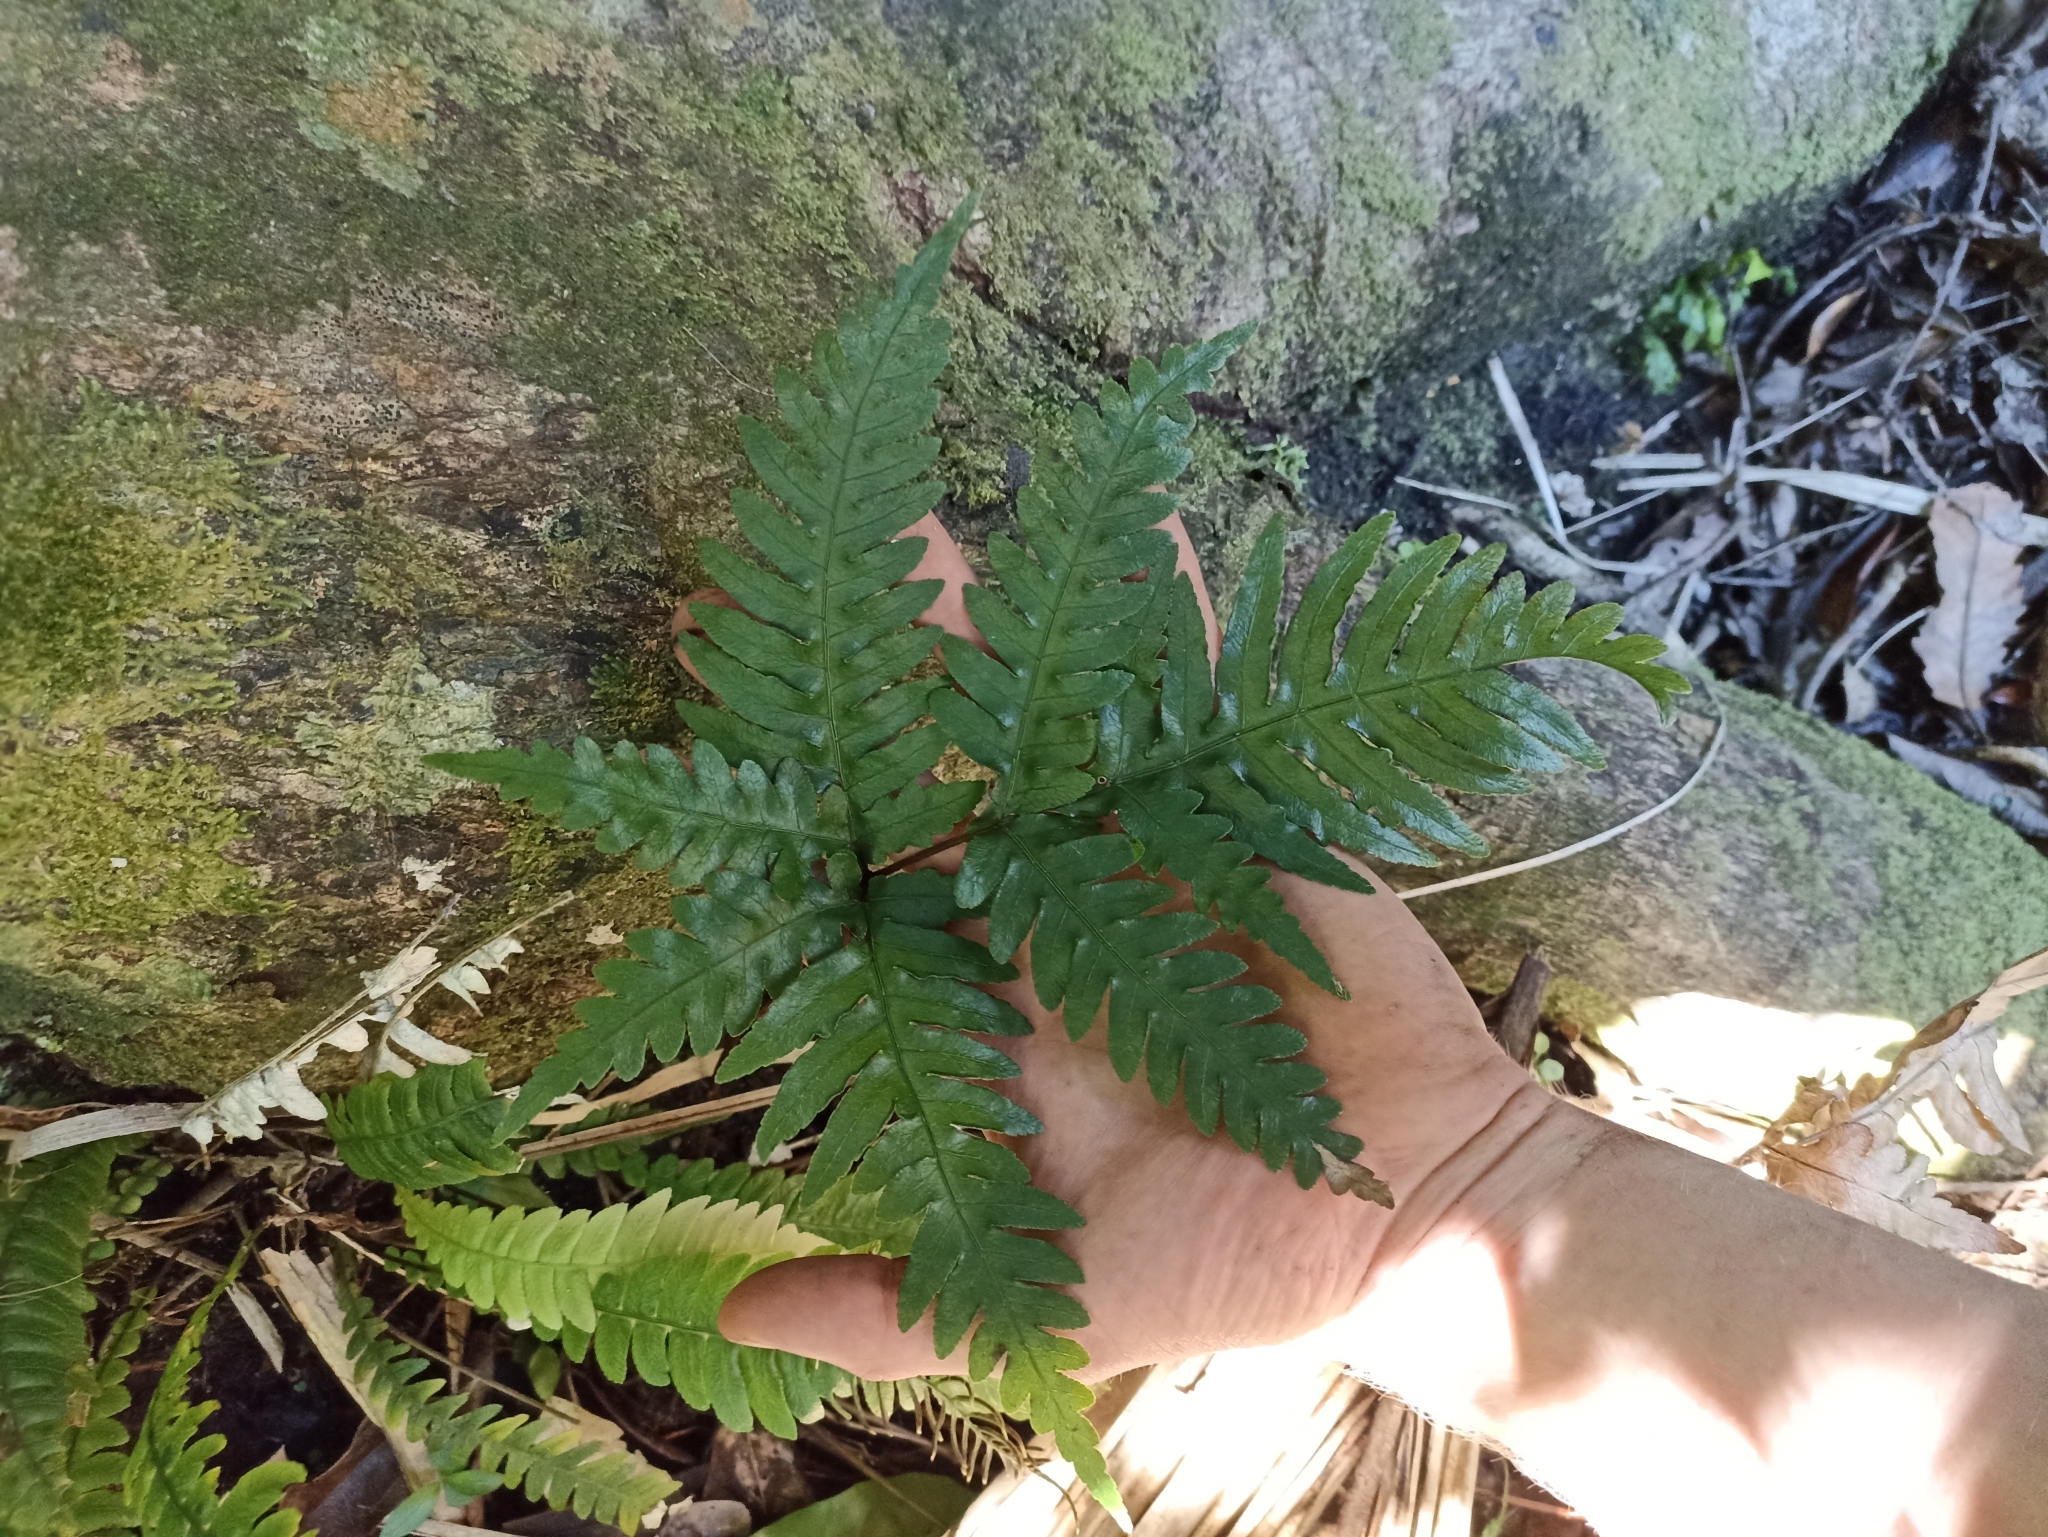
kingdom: Plantae
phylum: Tracheophyta
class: Polypodiopsida
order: Polypodiales
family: Pteridaceae
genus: Pteris
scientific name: Pteris carsei
